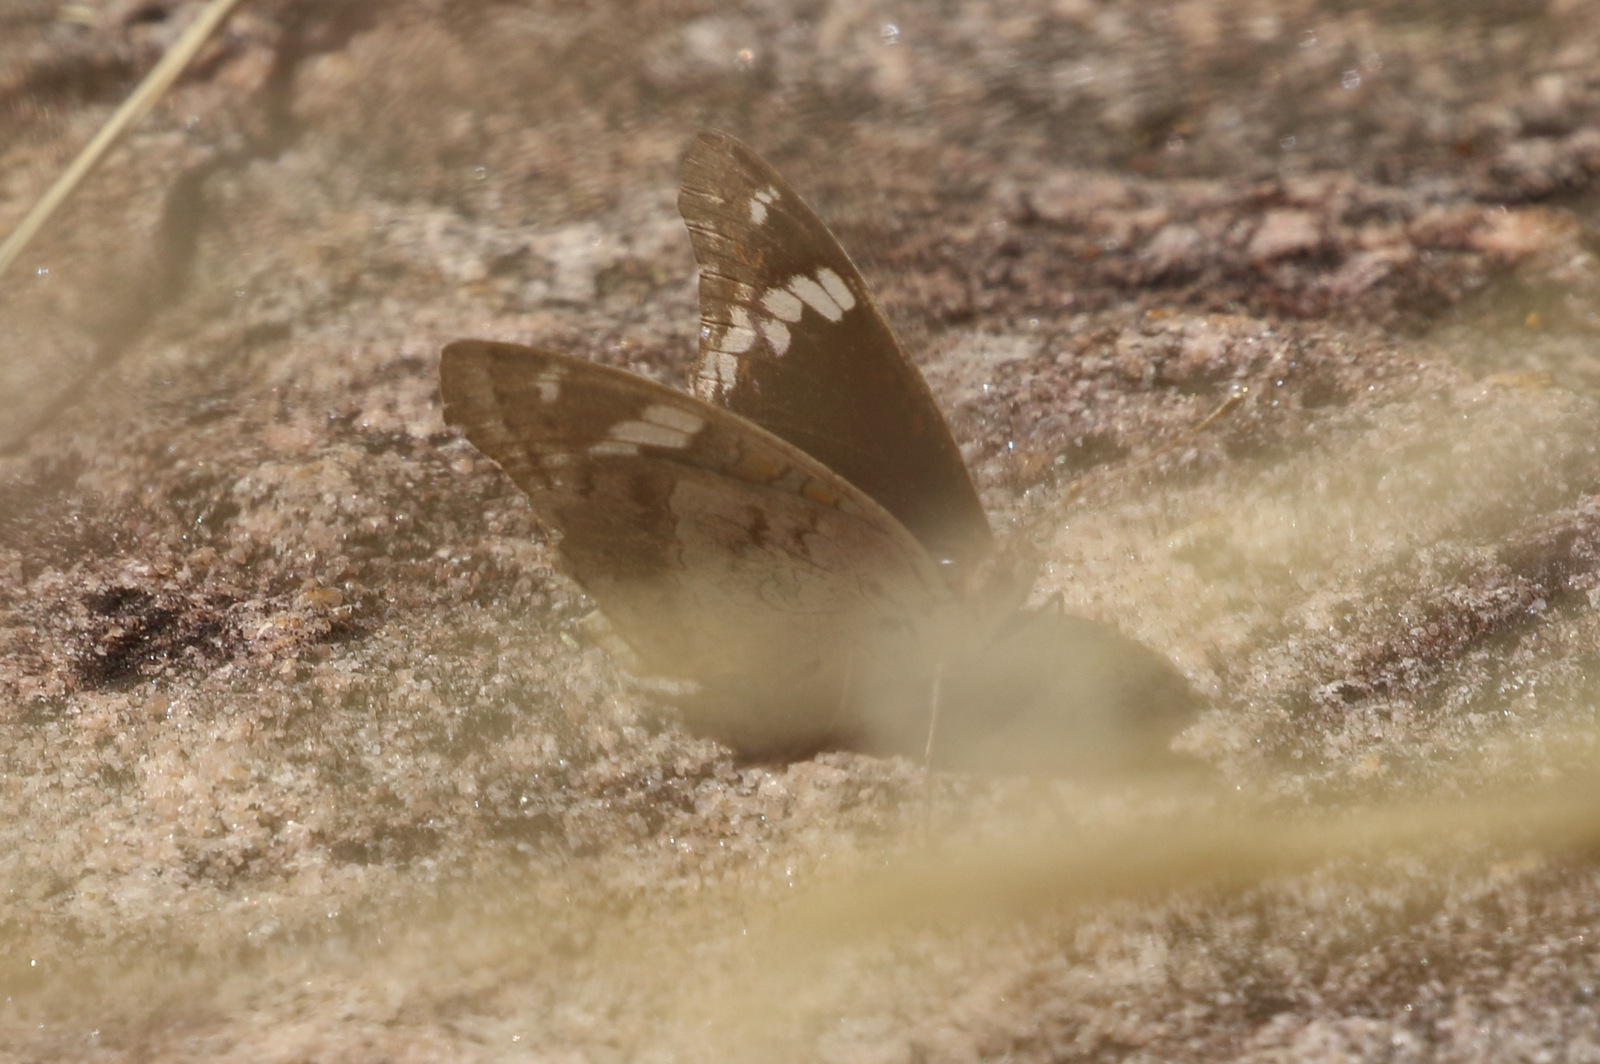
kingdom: Animalia
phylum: Arthropoda
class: Insecta
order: Lepidoptera
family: Nymphalidae
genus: Junonia
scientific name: Junonia orithya
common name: Blue pansy
